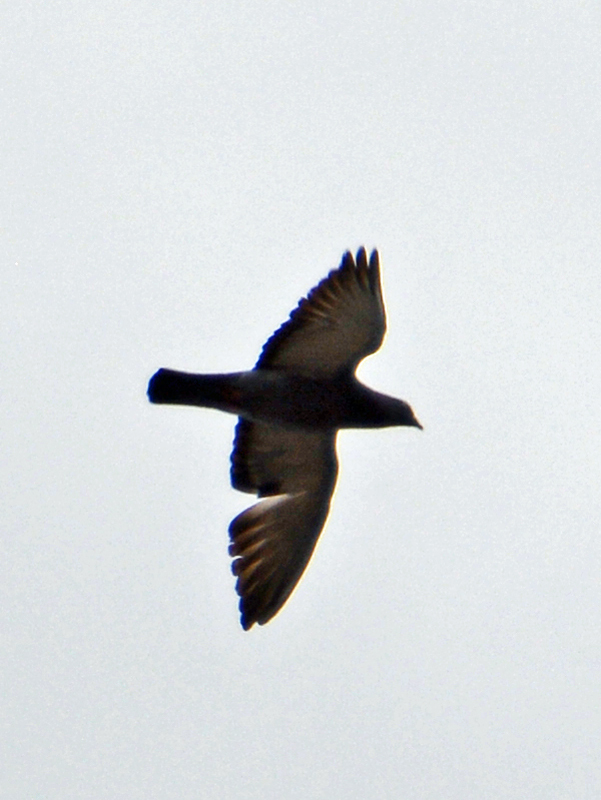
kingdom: Animalia
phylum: Chordata
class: Aves
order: Columbiformes
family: Columbidae
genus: Columba
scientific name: Columba livia
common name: Rock pigeon
